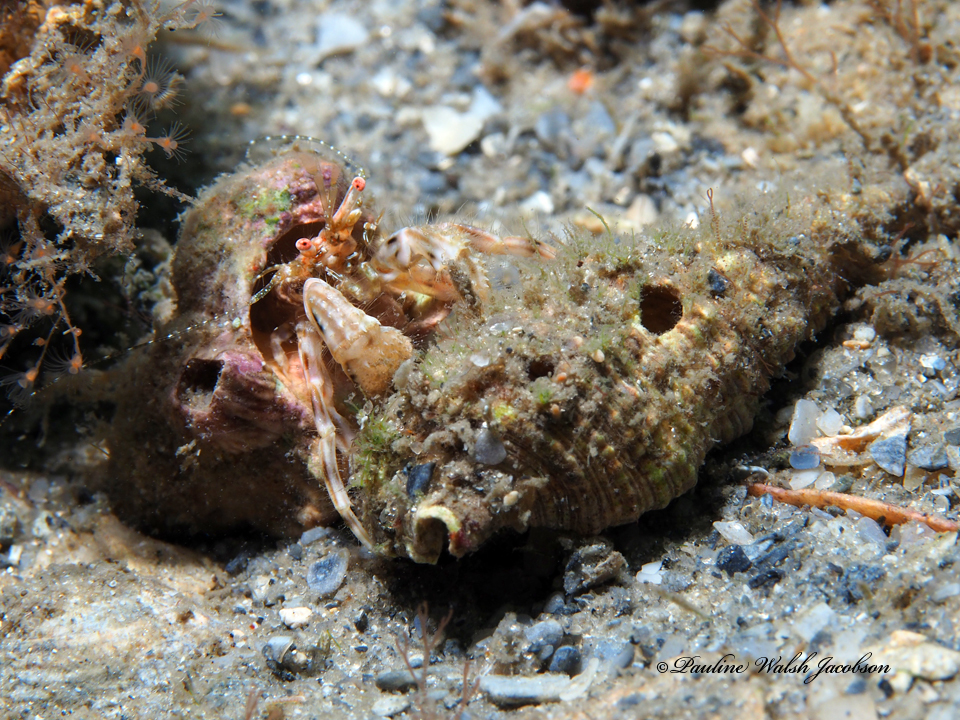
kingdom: Animalia
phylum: Arthropoda
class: Malacostraca
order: Decapoda
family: Paguridae
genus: Pagurus
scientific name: Pagurus brevidactylus
